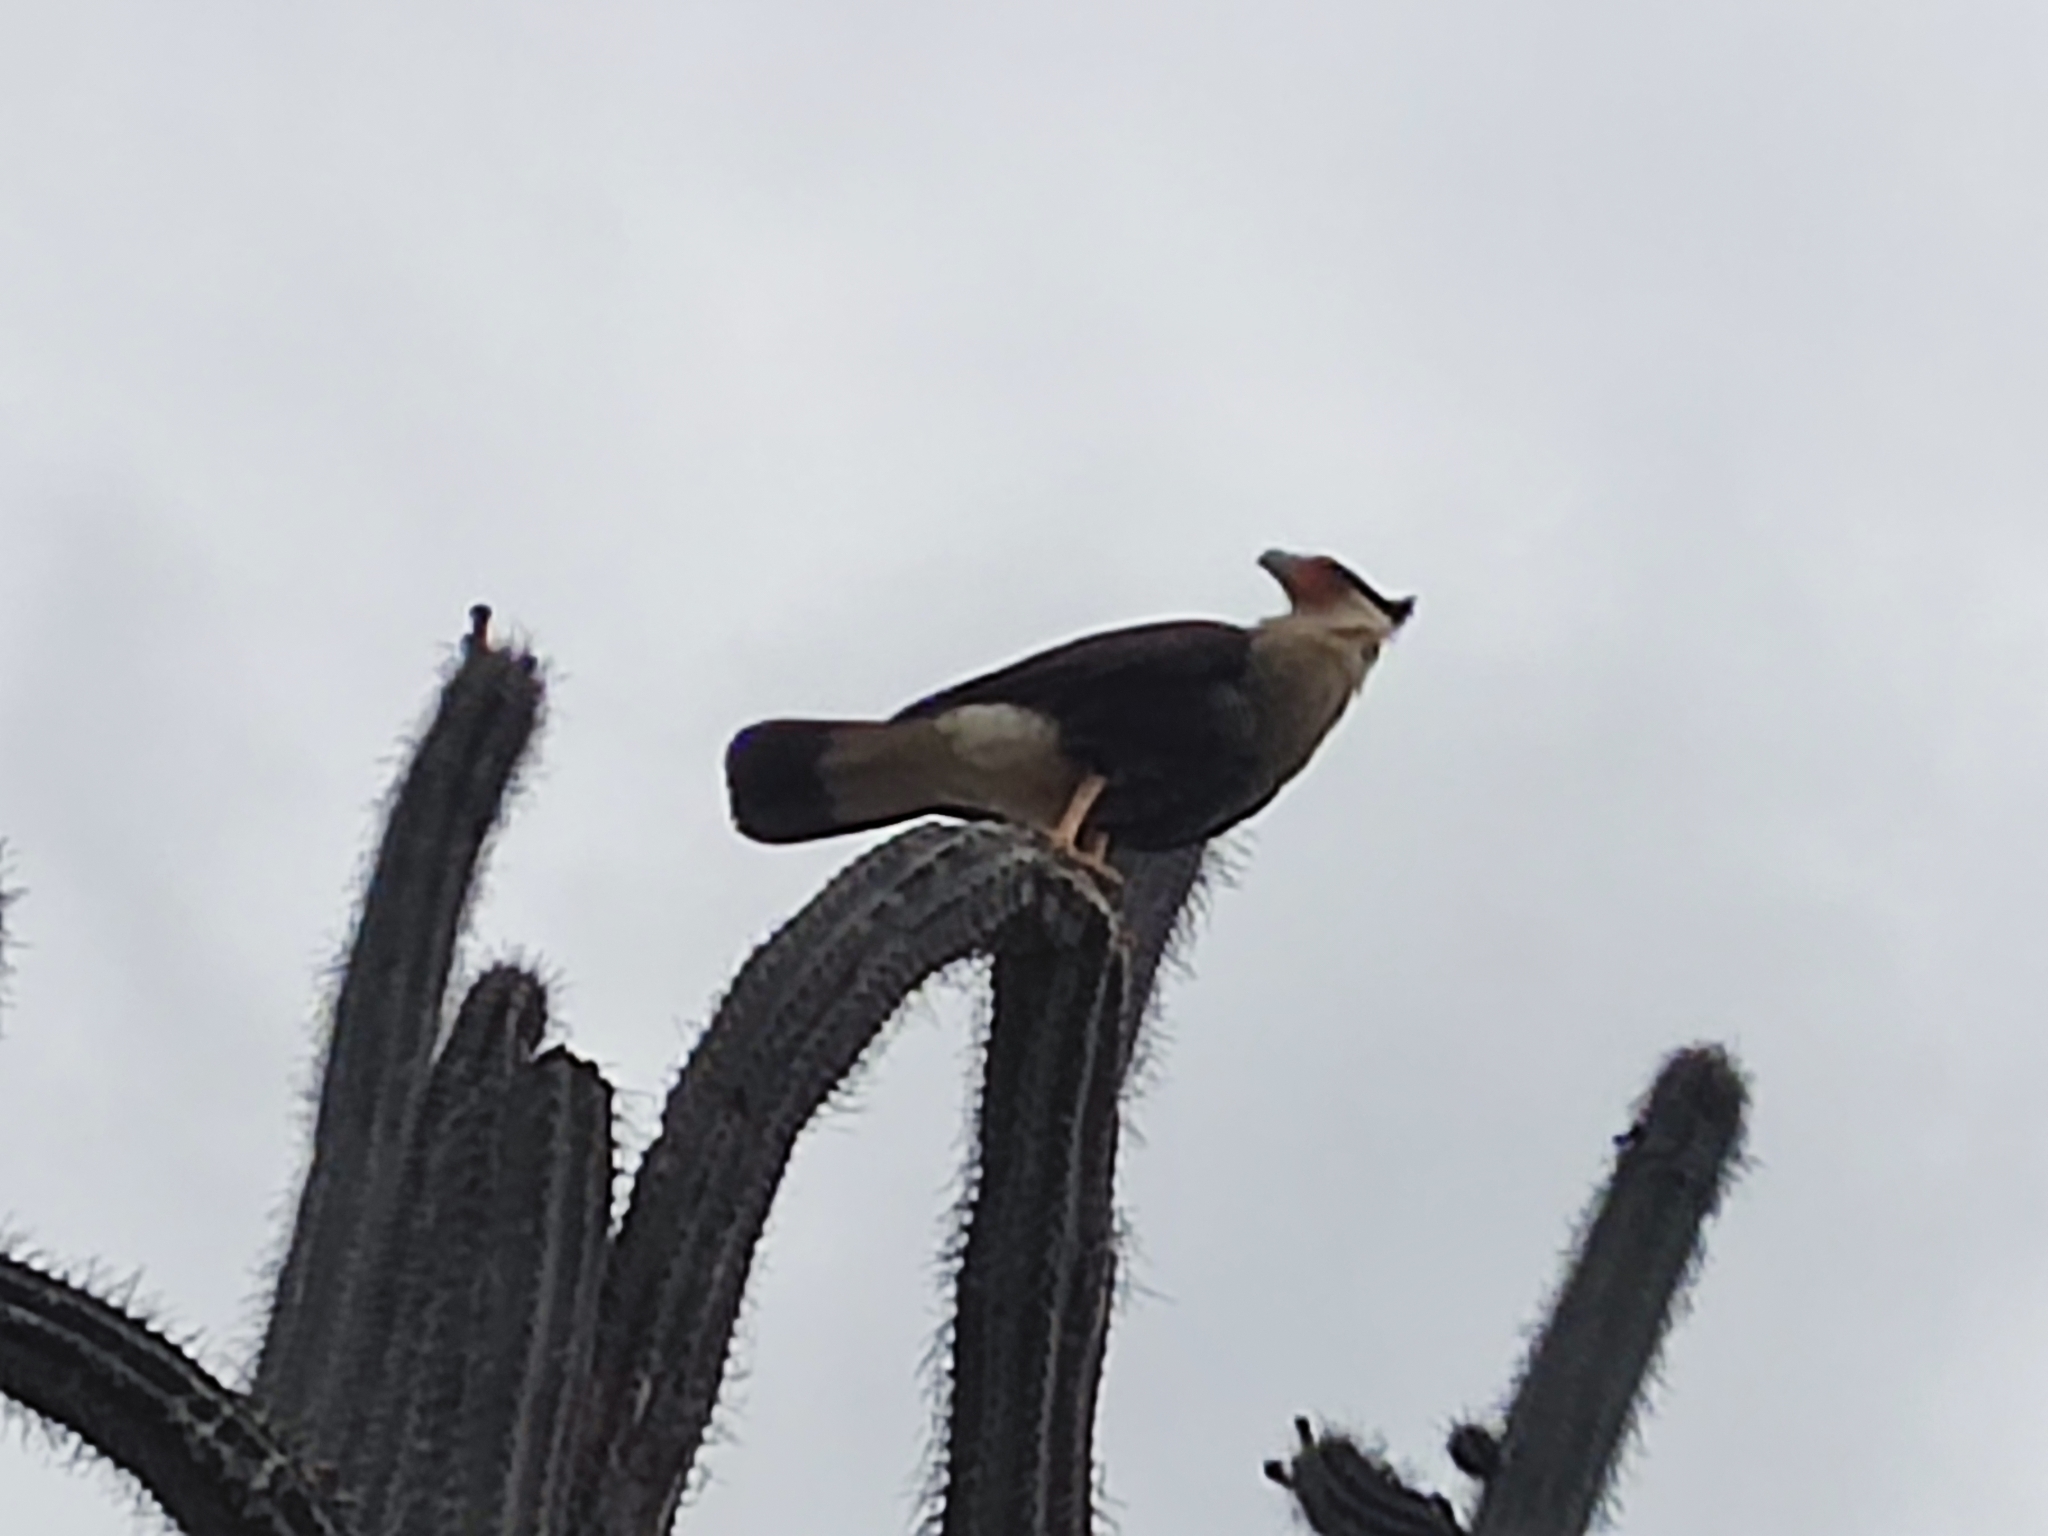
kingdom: Animalia
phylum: Chordata
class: Aves
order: Falconiformes
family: Falconidae
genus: Caracara
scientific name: Caracara plancus
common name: Southern caracara
